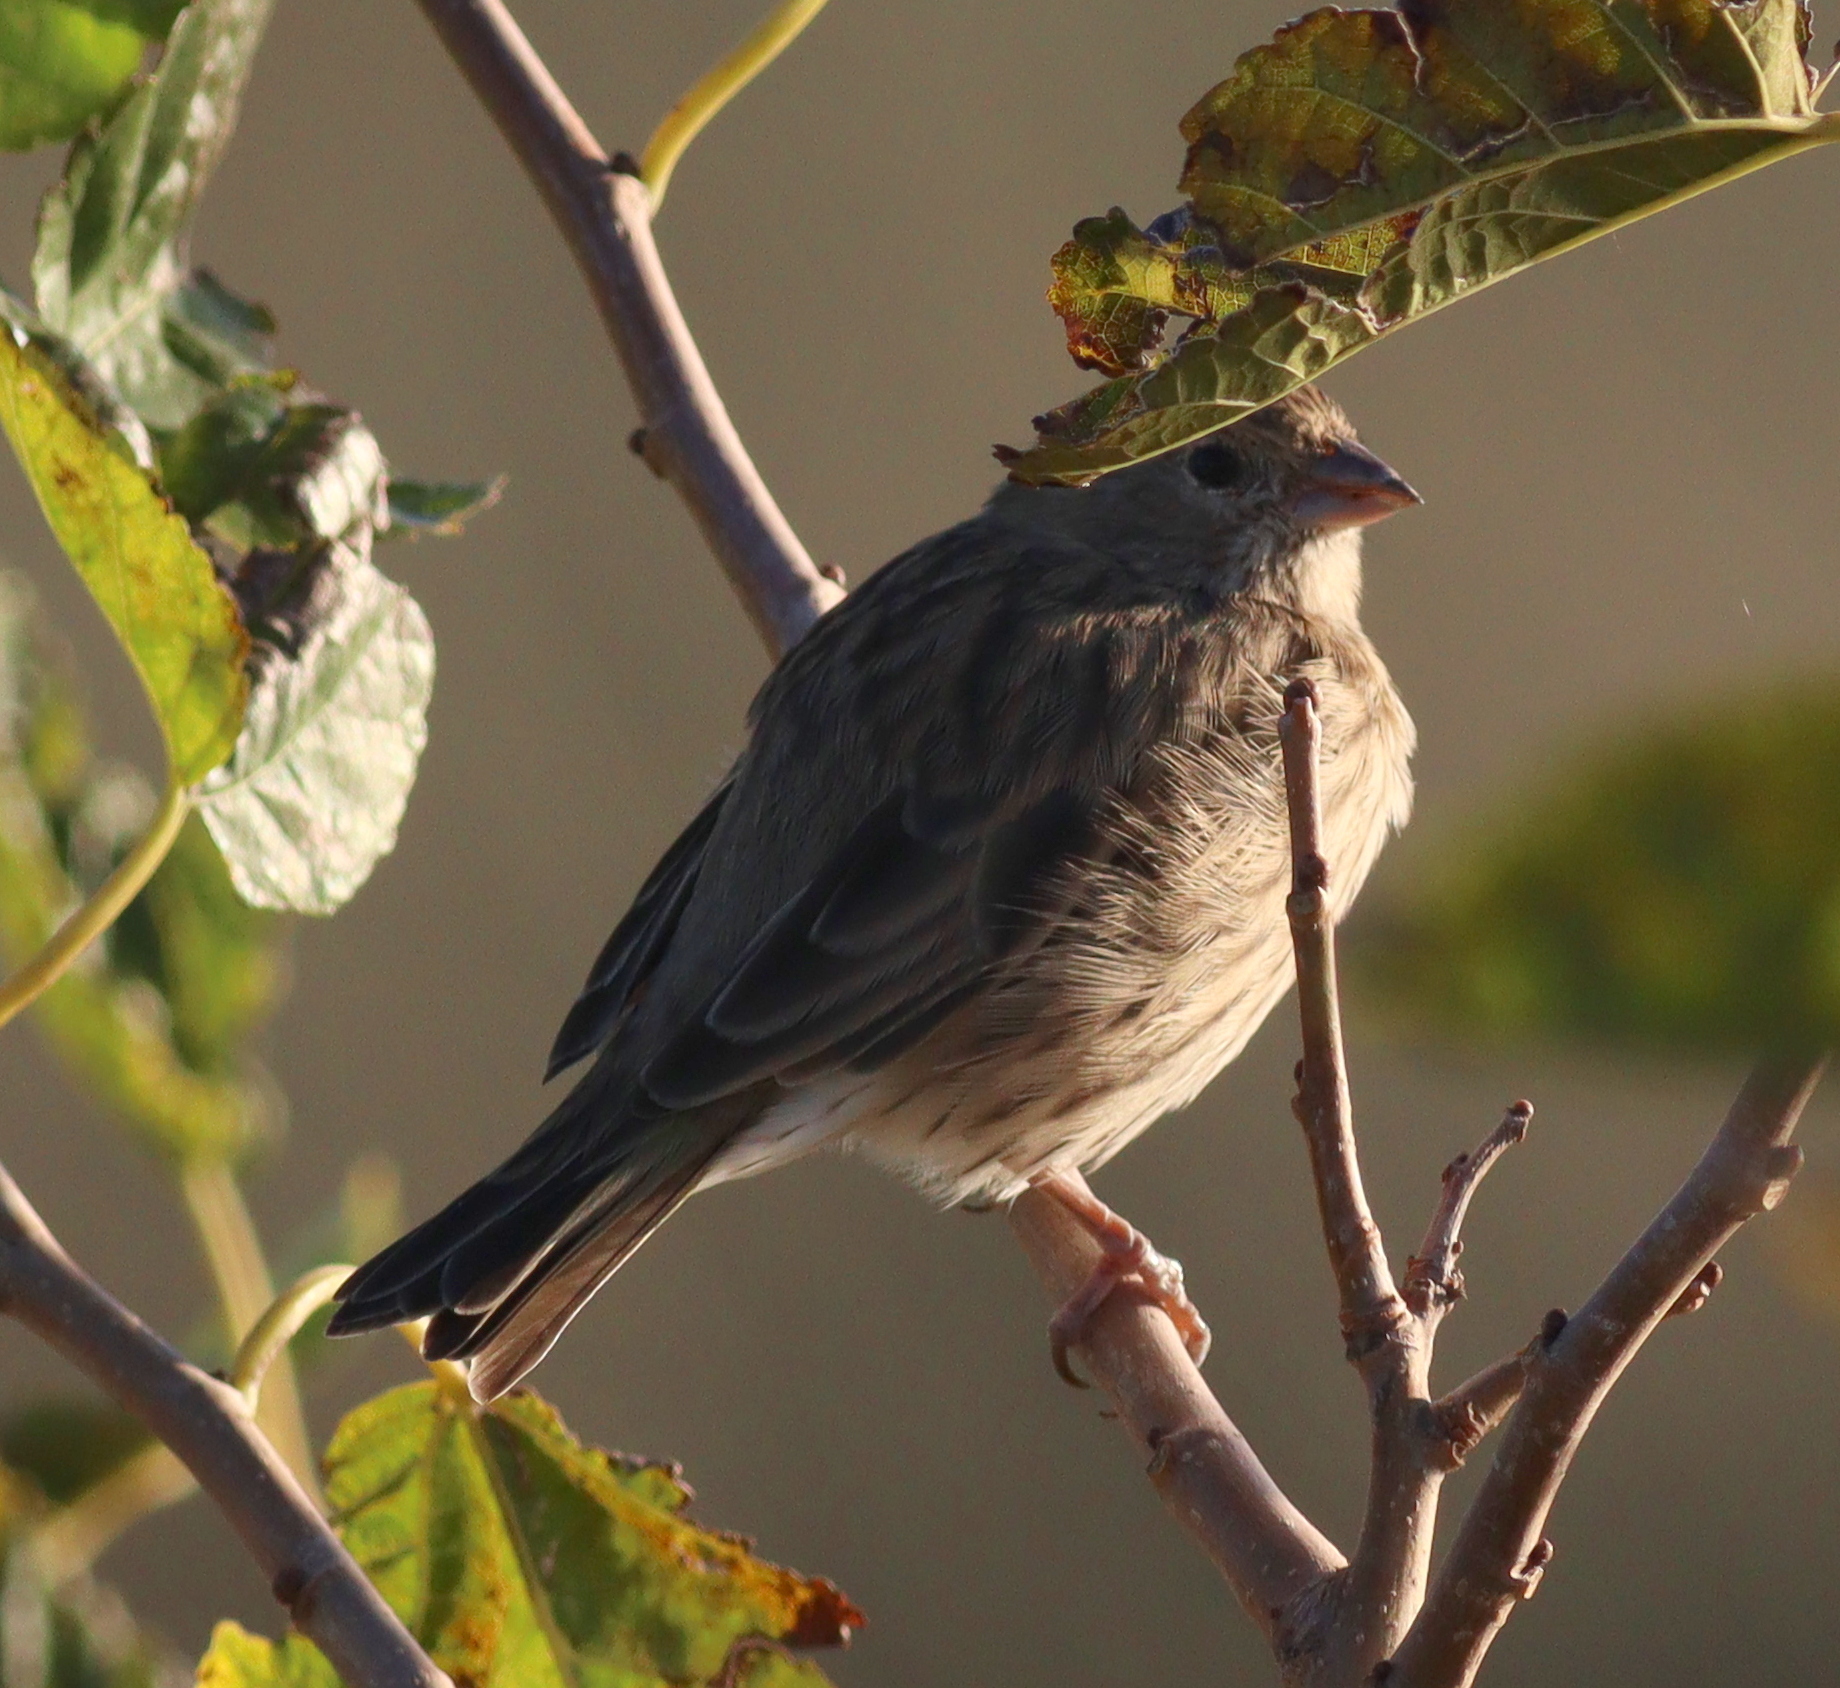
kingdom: Animalia
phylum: Chordata
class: Aves
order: Passeriformes
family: Thraupidae
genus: Sicalis
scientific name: Sicalis flaveola
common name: Saffron finch
